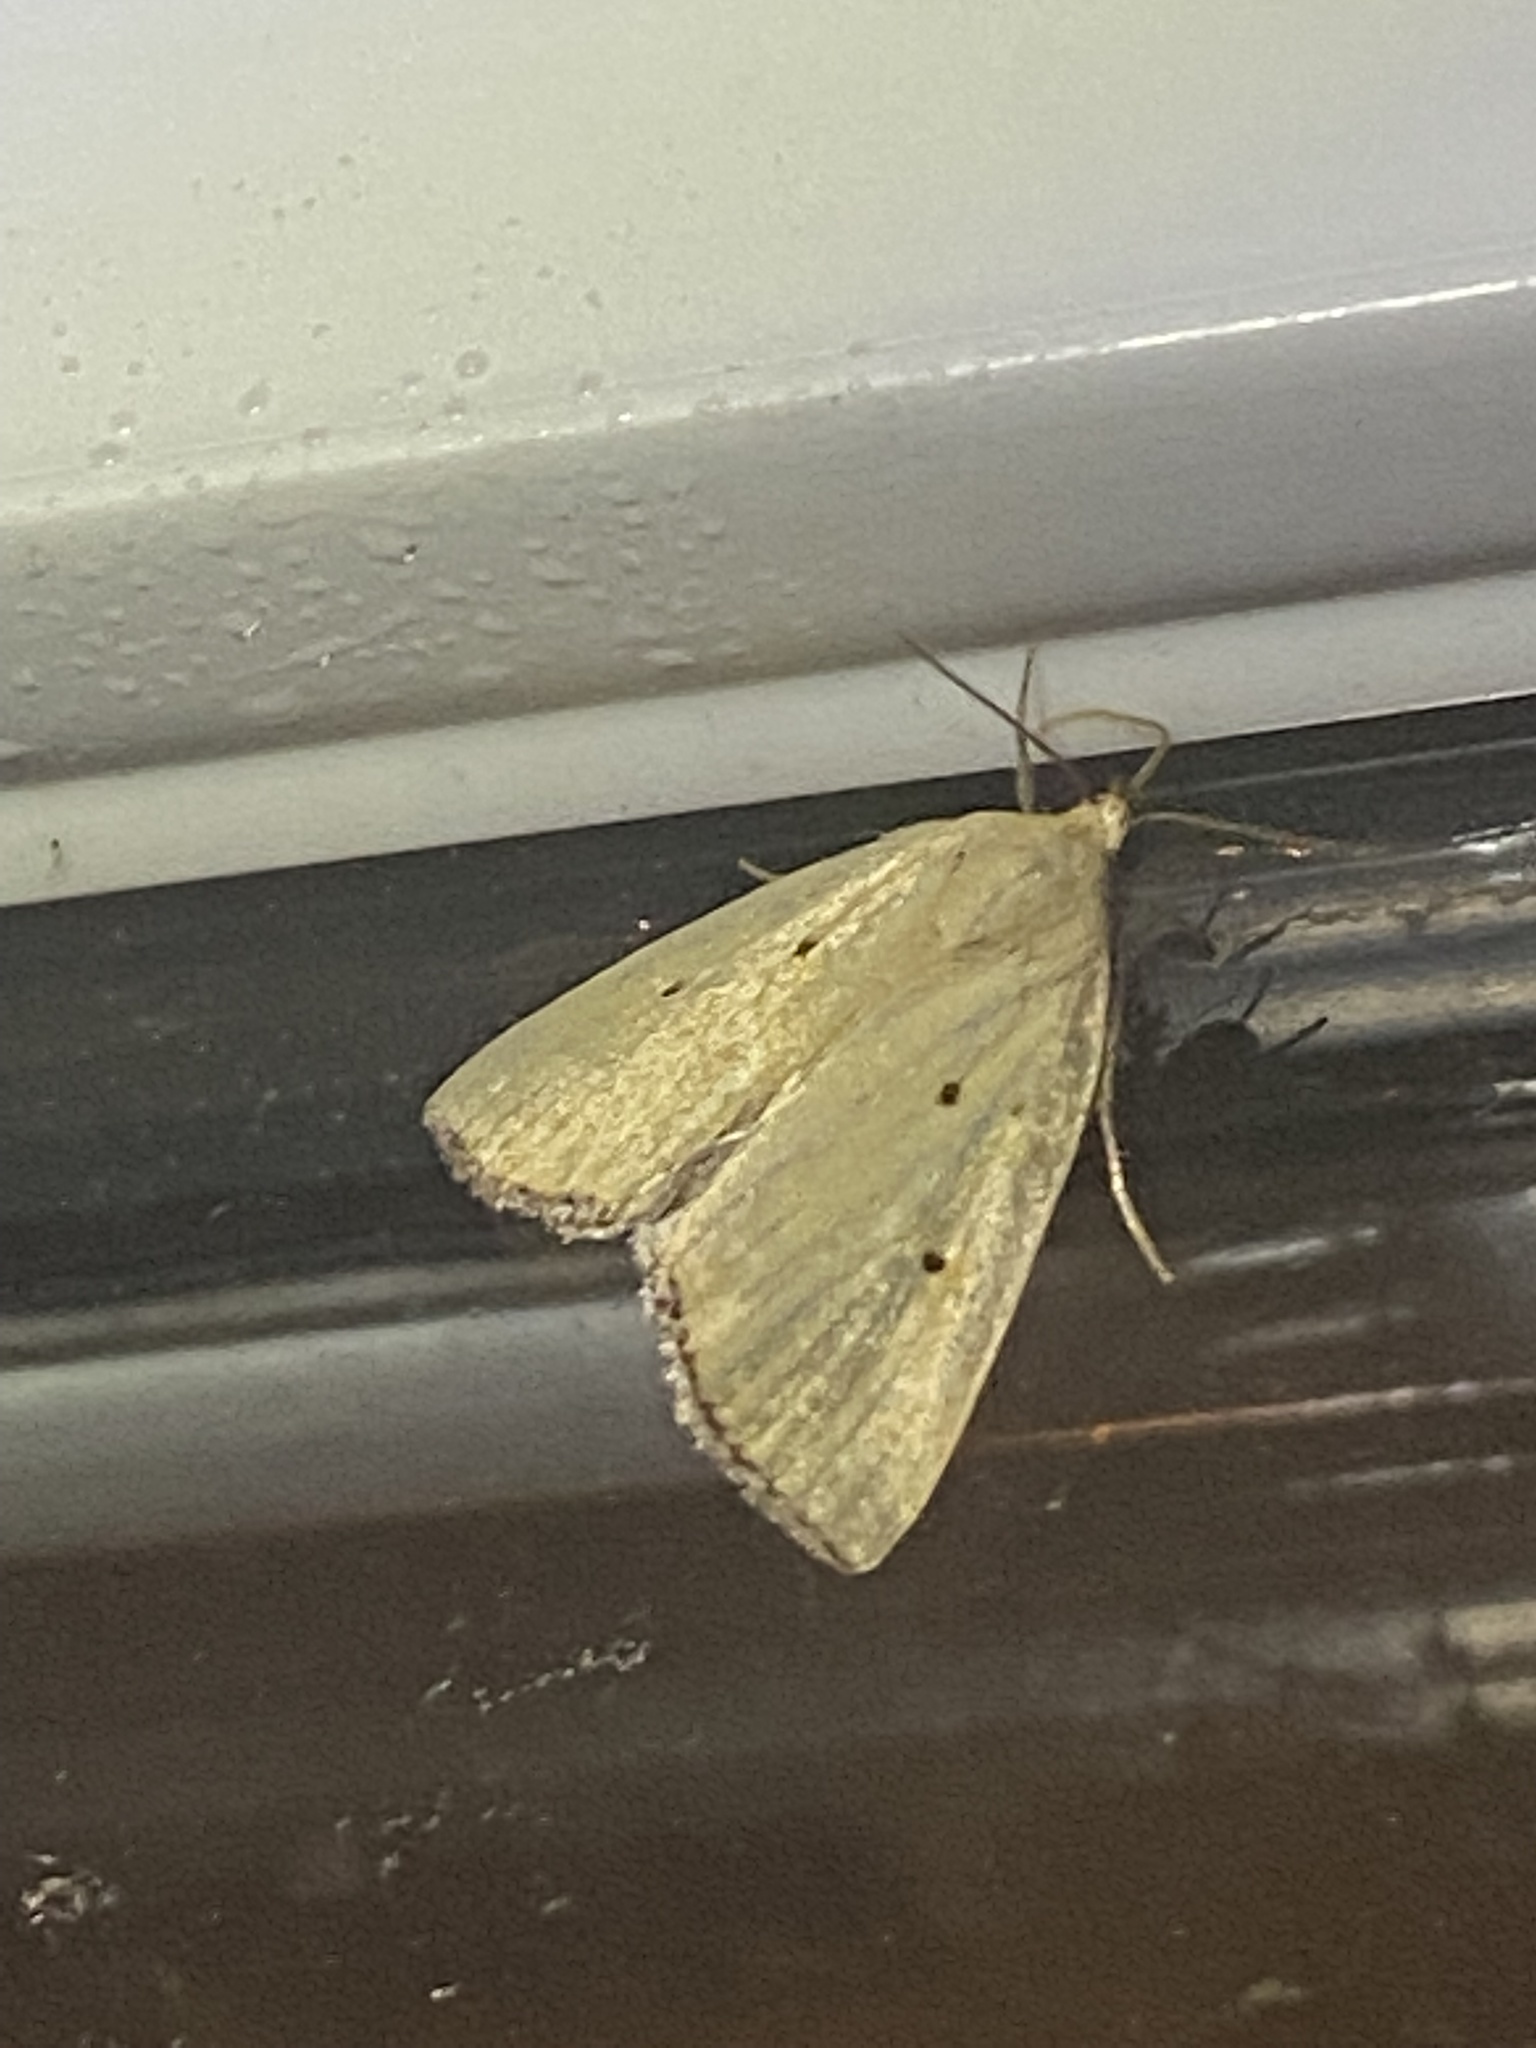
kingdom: Animalia
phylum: Arthropoda
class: Insecta
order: Lepidoptera
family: Noctuidae
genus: Marimatha
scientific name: Marimatha nigrofimbria
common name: Black-bordered lemon moth
